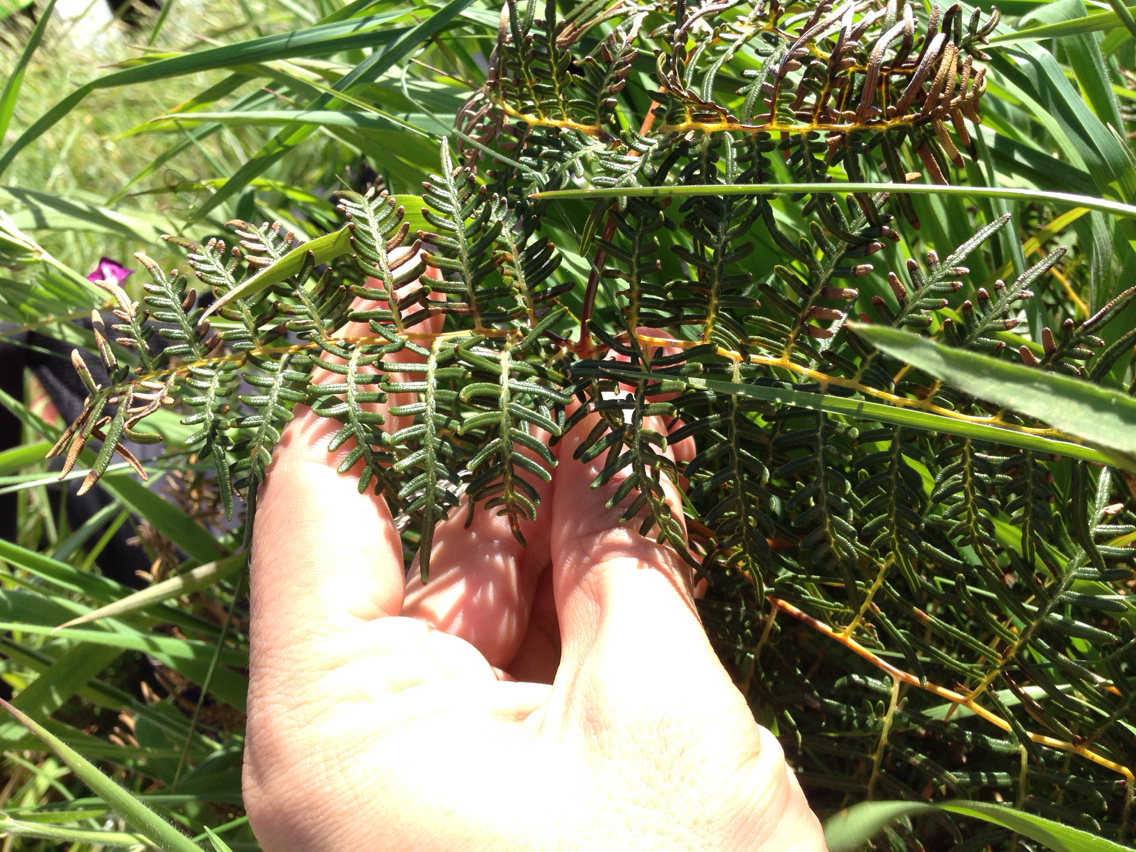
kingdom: Plantae
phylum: Tracheophyta
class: Polypodiopsida
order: Polypodiales
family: Dennstaedtiaceae
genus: Pteridium
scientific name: Pteridium esculentum
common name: Bracken fern
